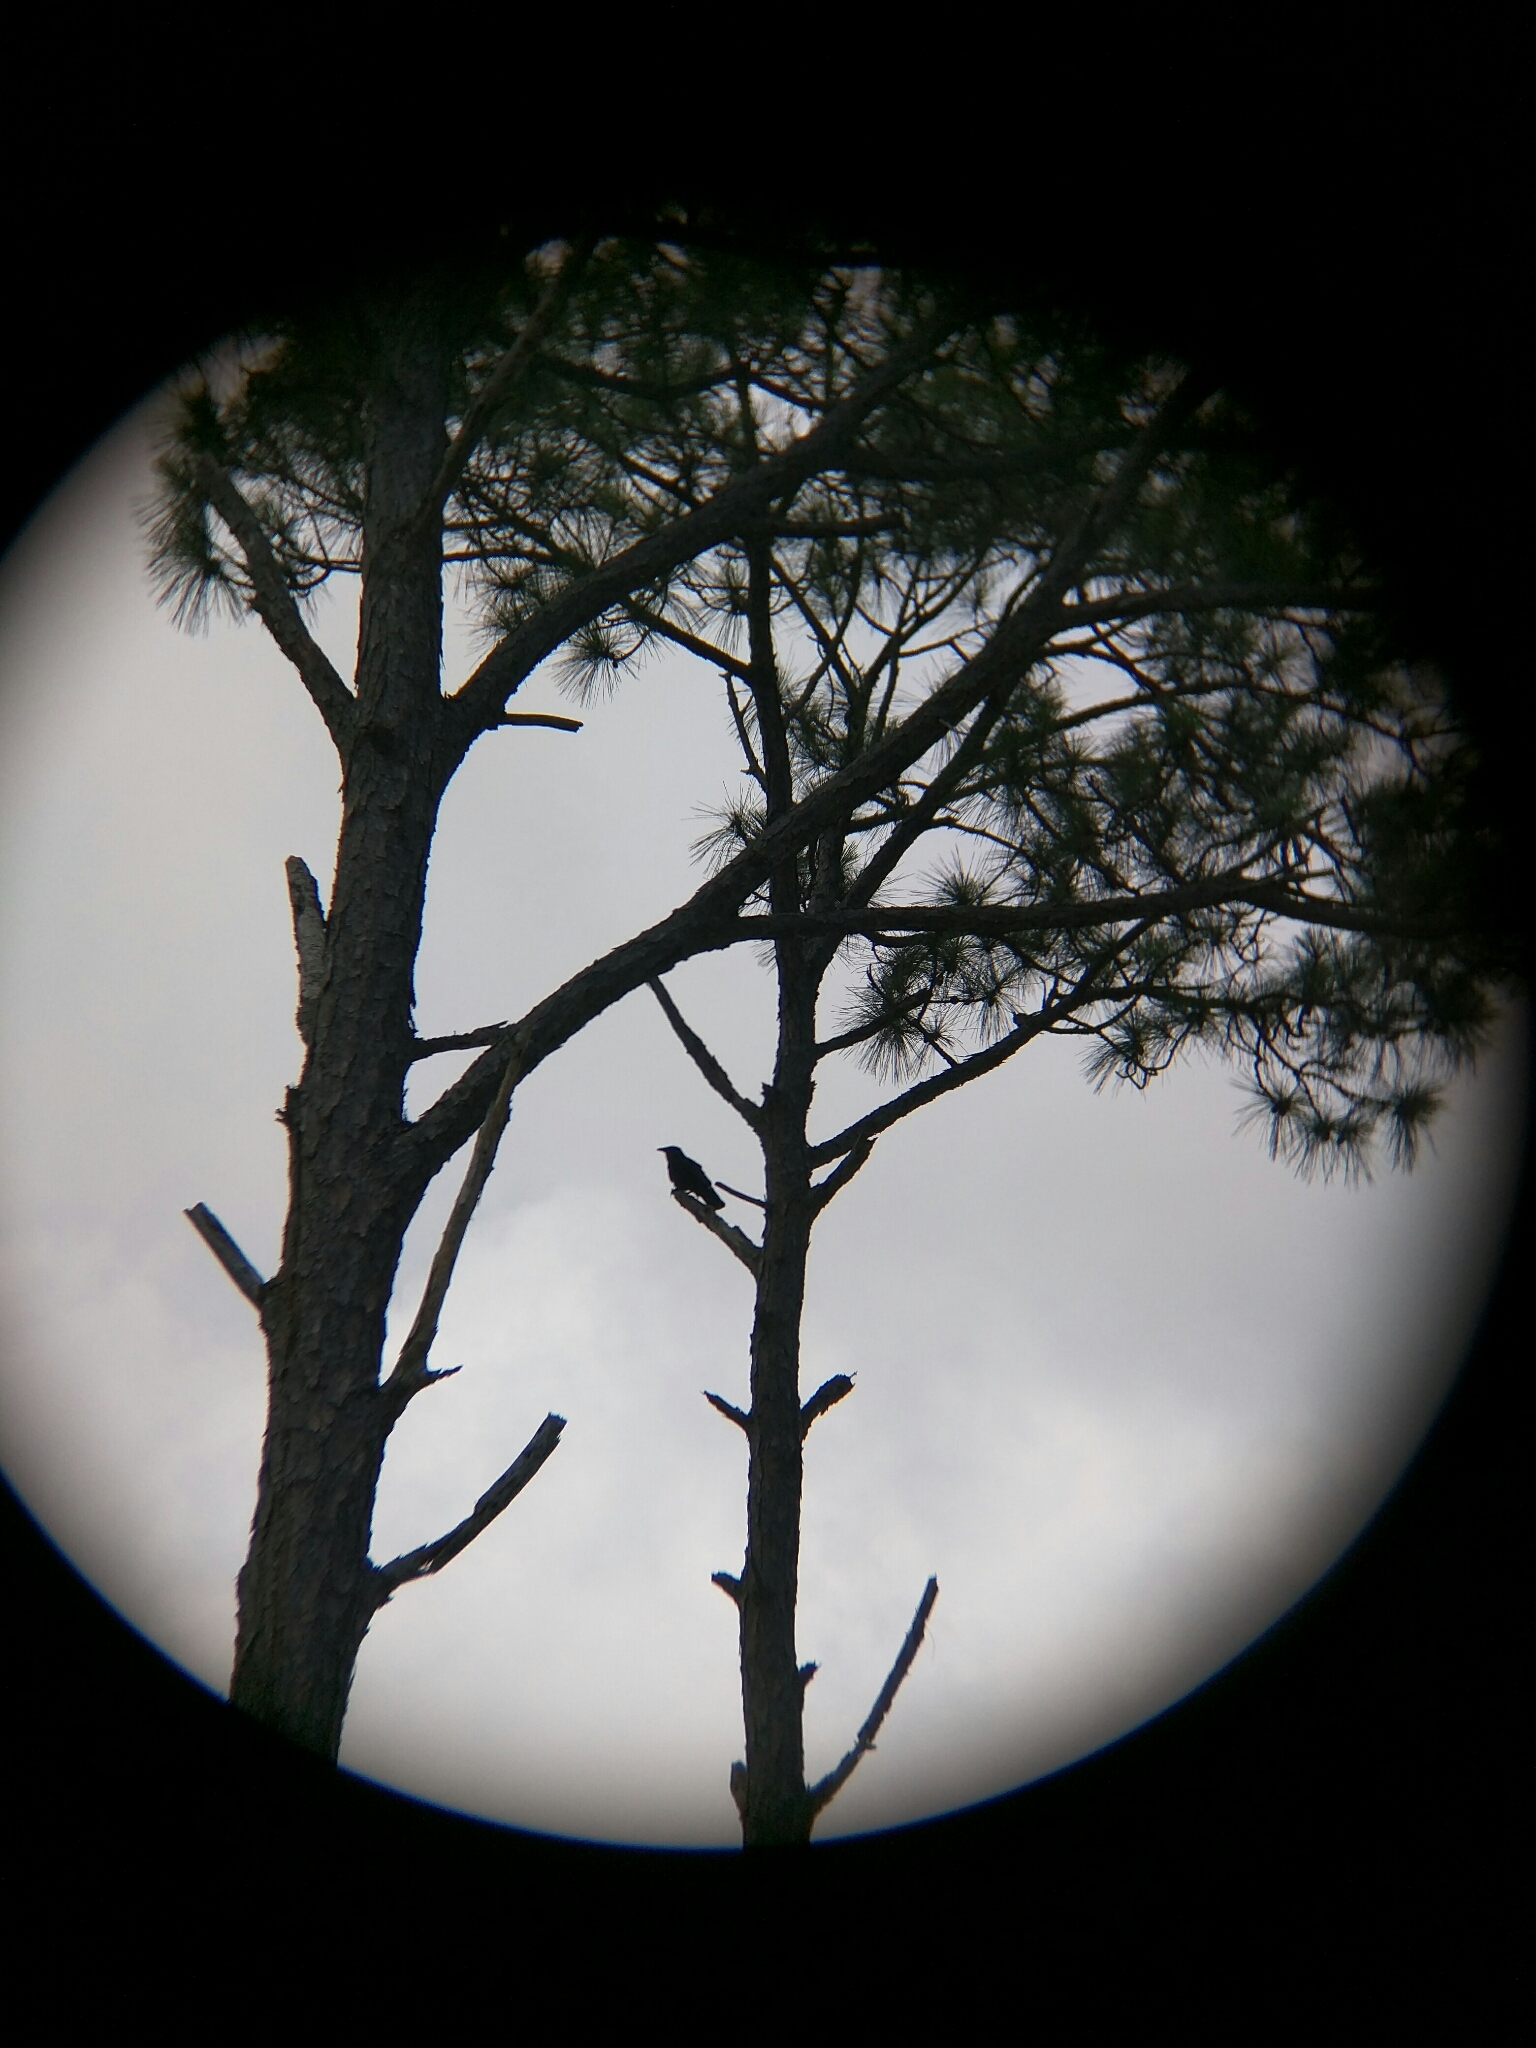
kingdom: Animalia
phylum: Chordata
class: Aves
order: Passeriformes
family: Corvidae
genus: Corvus
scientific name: Corvus
